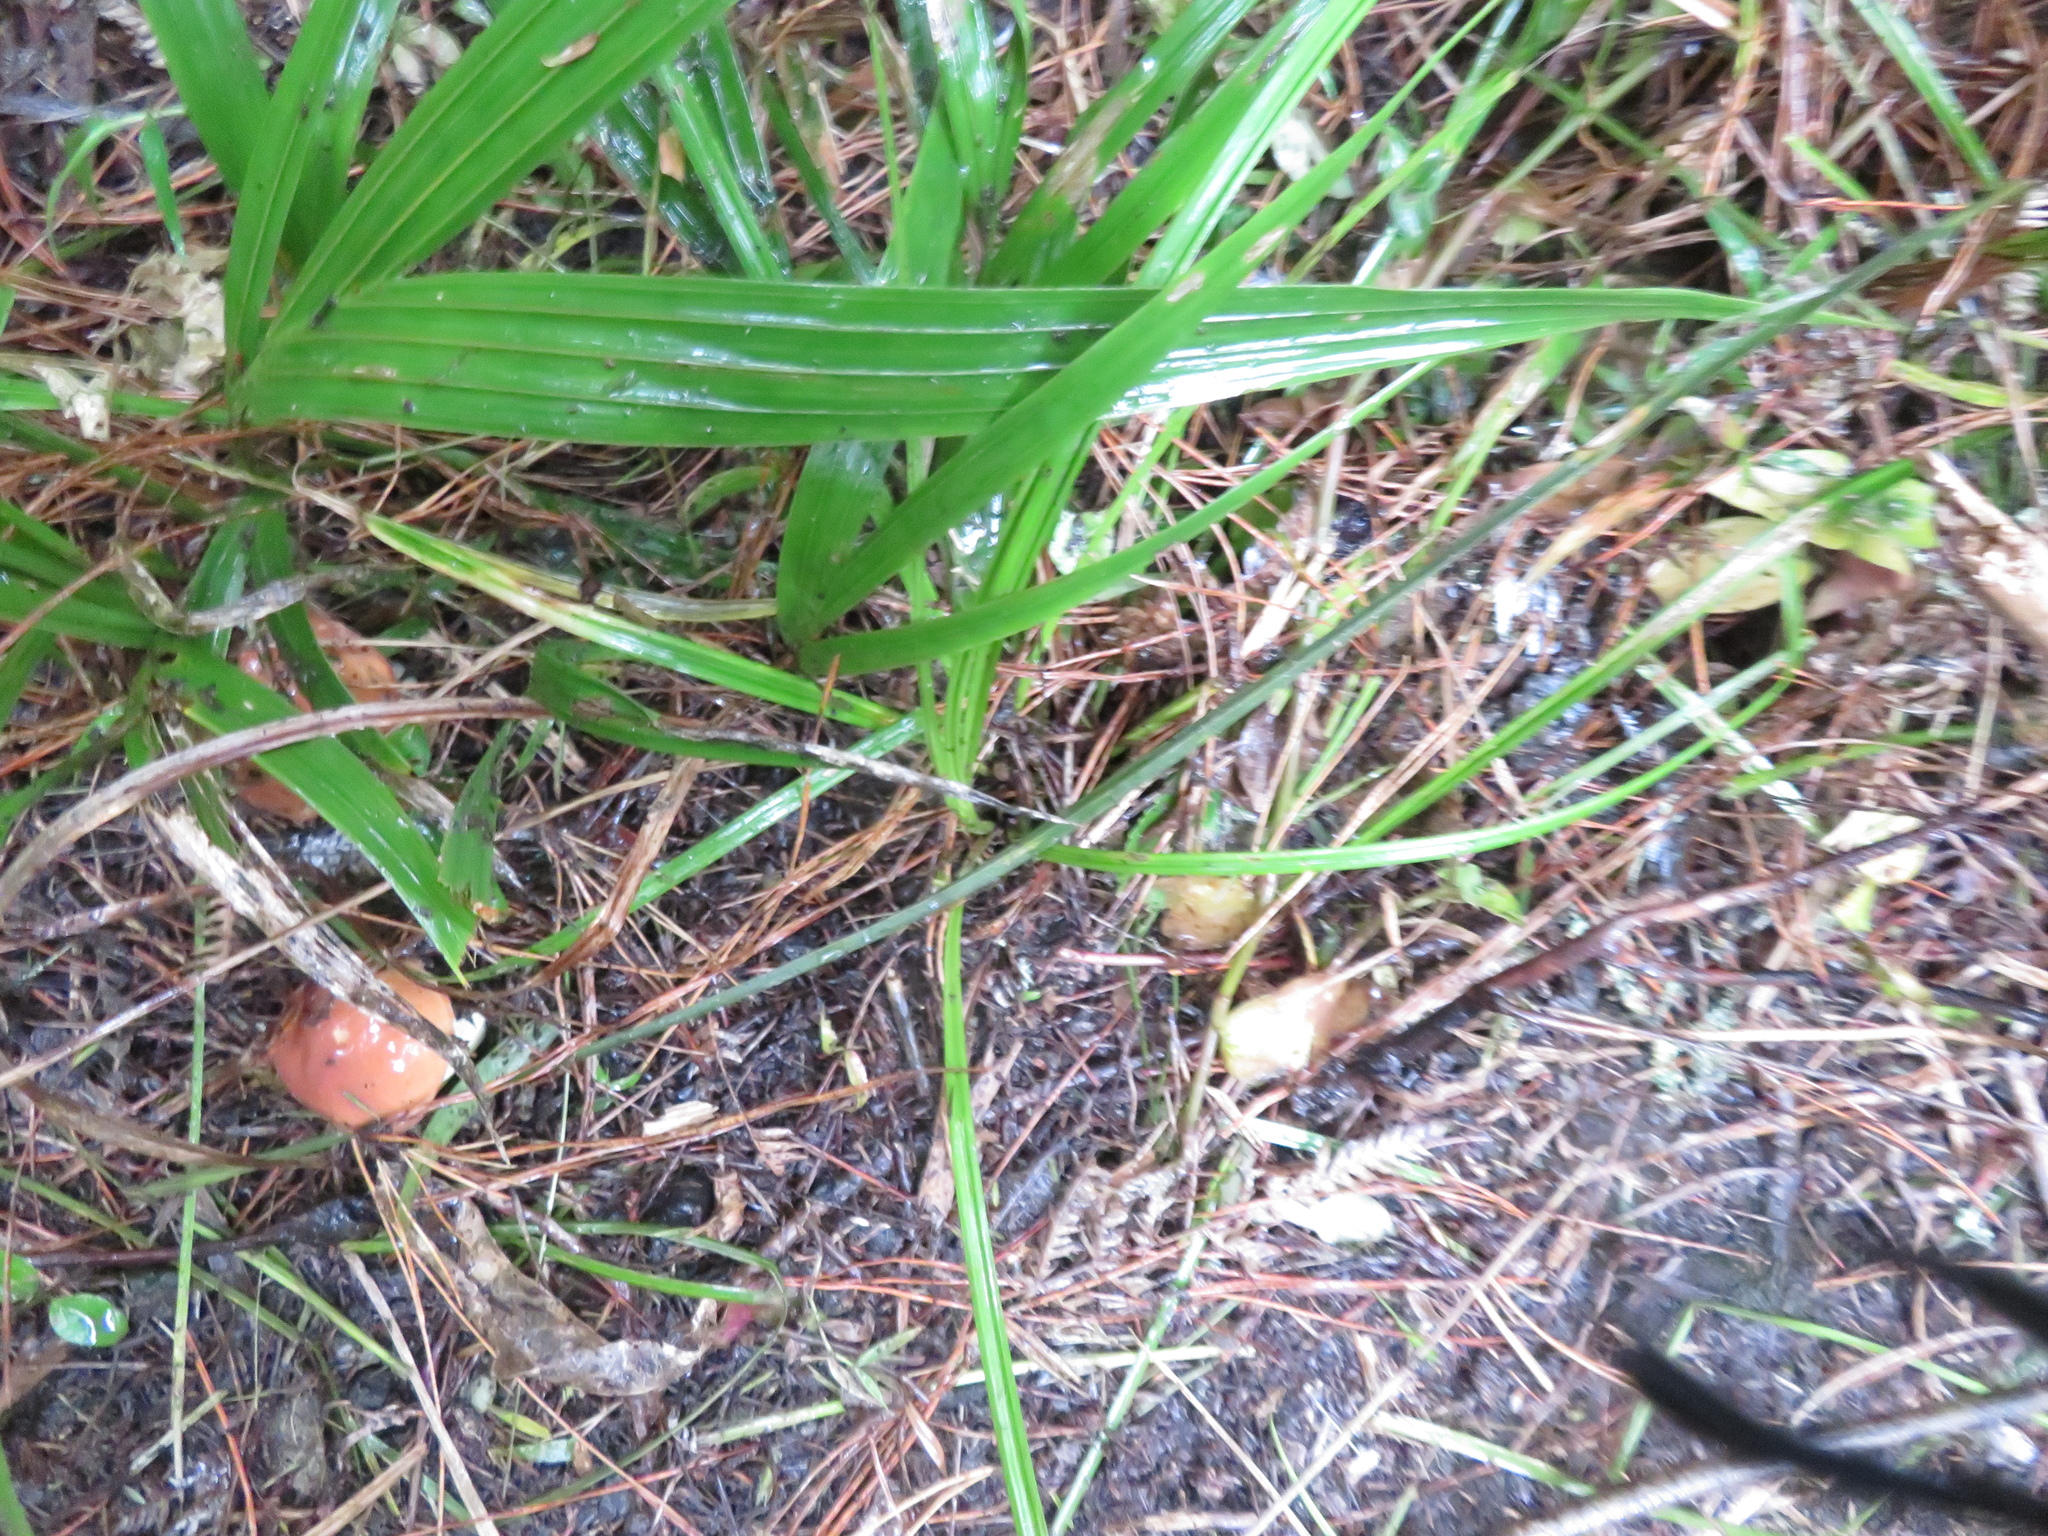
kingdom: Plantae
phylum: Tracheophyta
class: Liliopsida
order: Arecales
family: Arecaceae
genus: Rhopalostylis
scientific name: Rhopalostylis sapida
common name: Feather-duster palm
